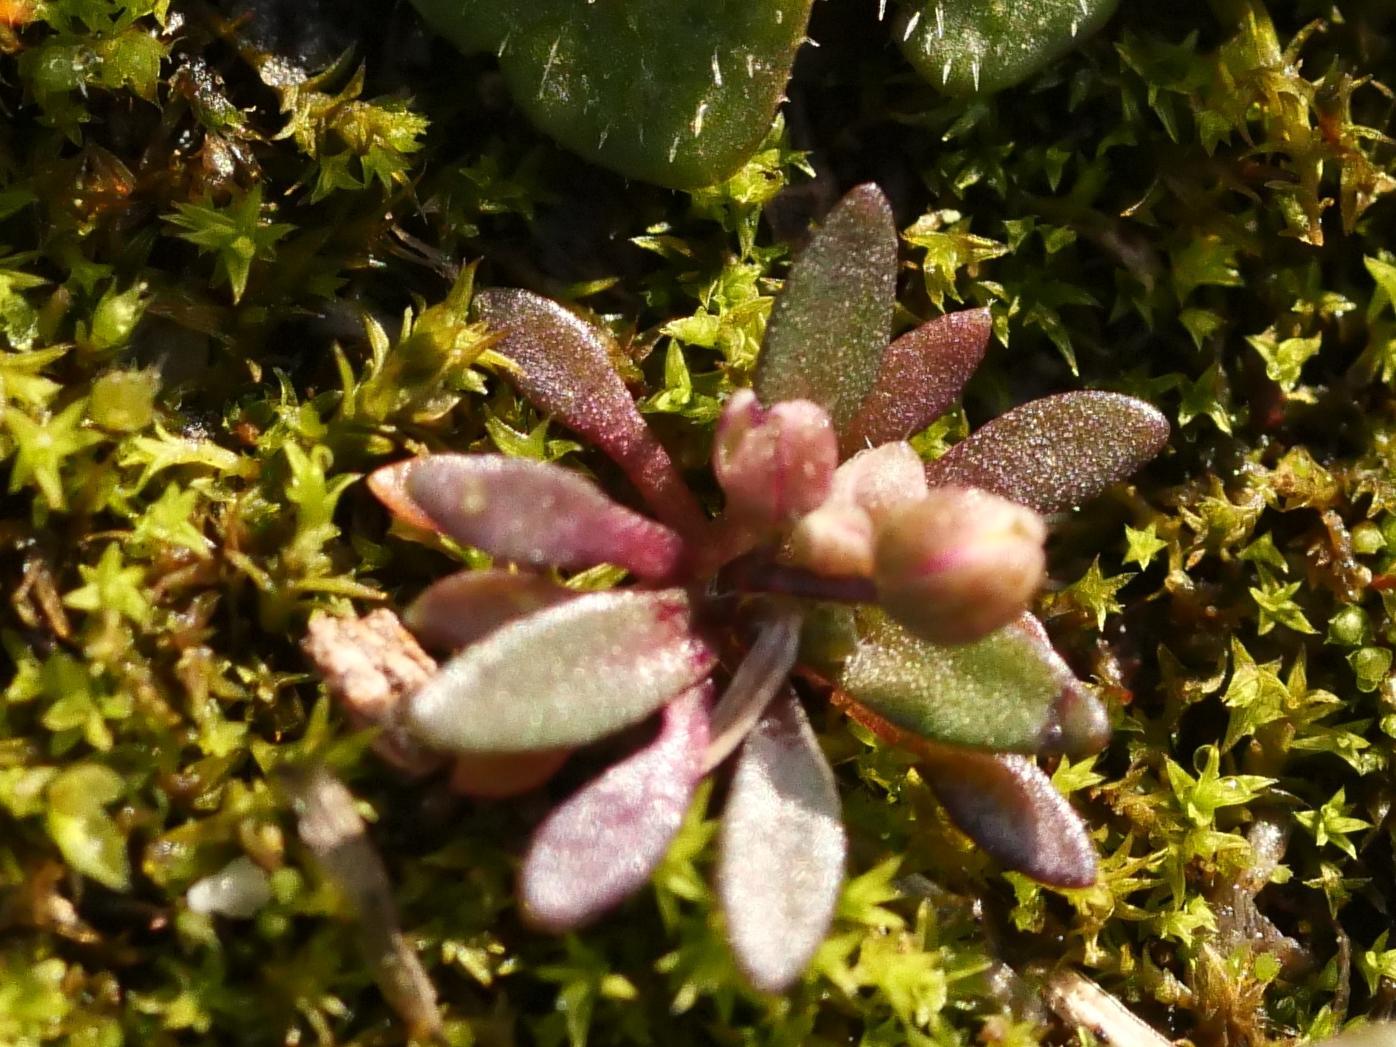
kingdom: Plantae
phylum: Tracheophyta
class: Magnoliopsida
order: Brassicales
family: Brassicaceae
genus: Draba
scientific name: Draba verna
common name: Spring draba
